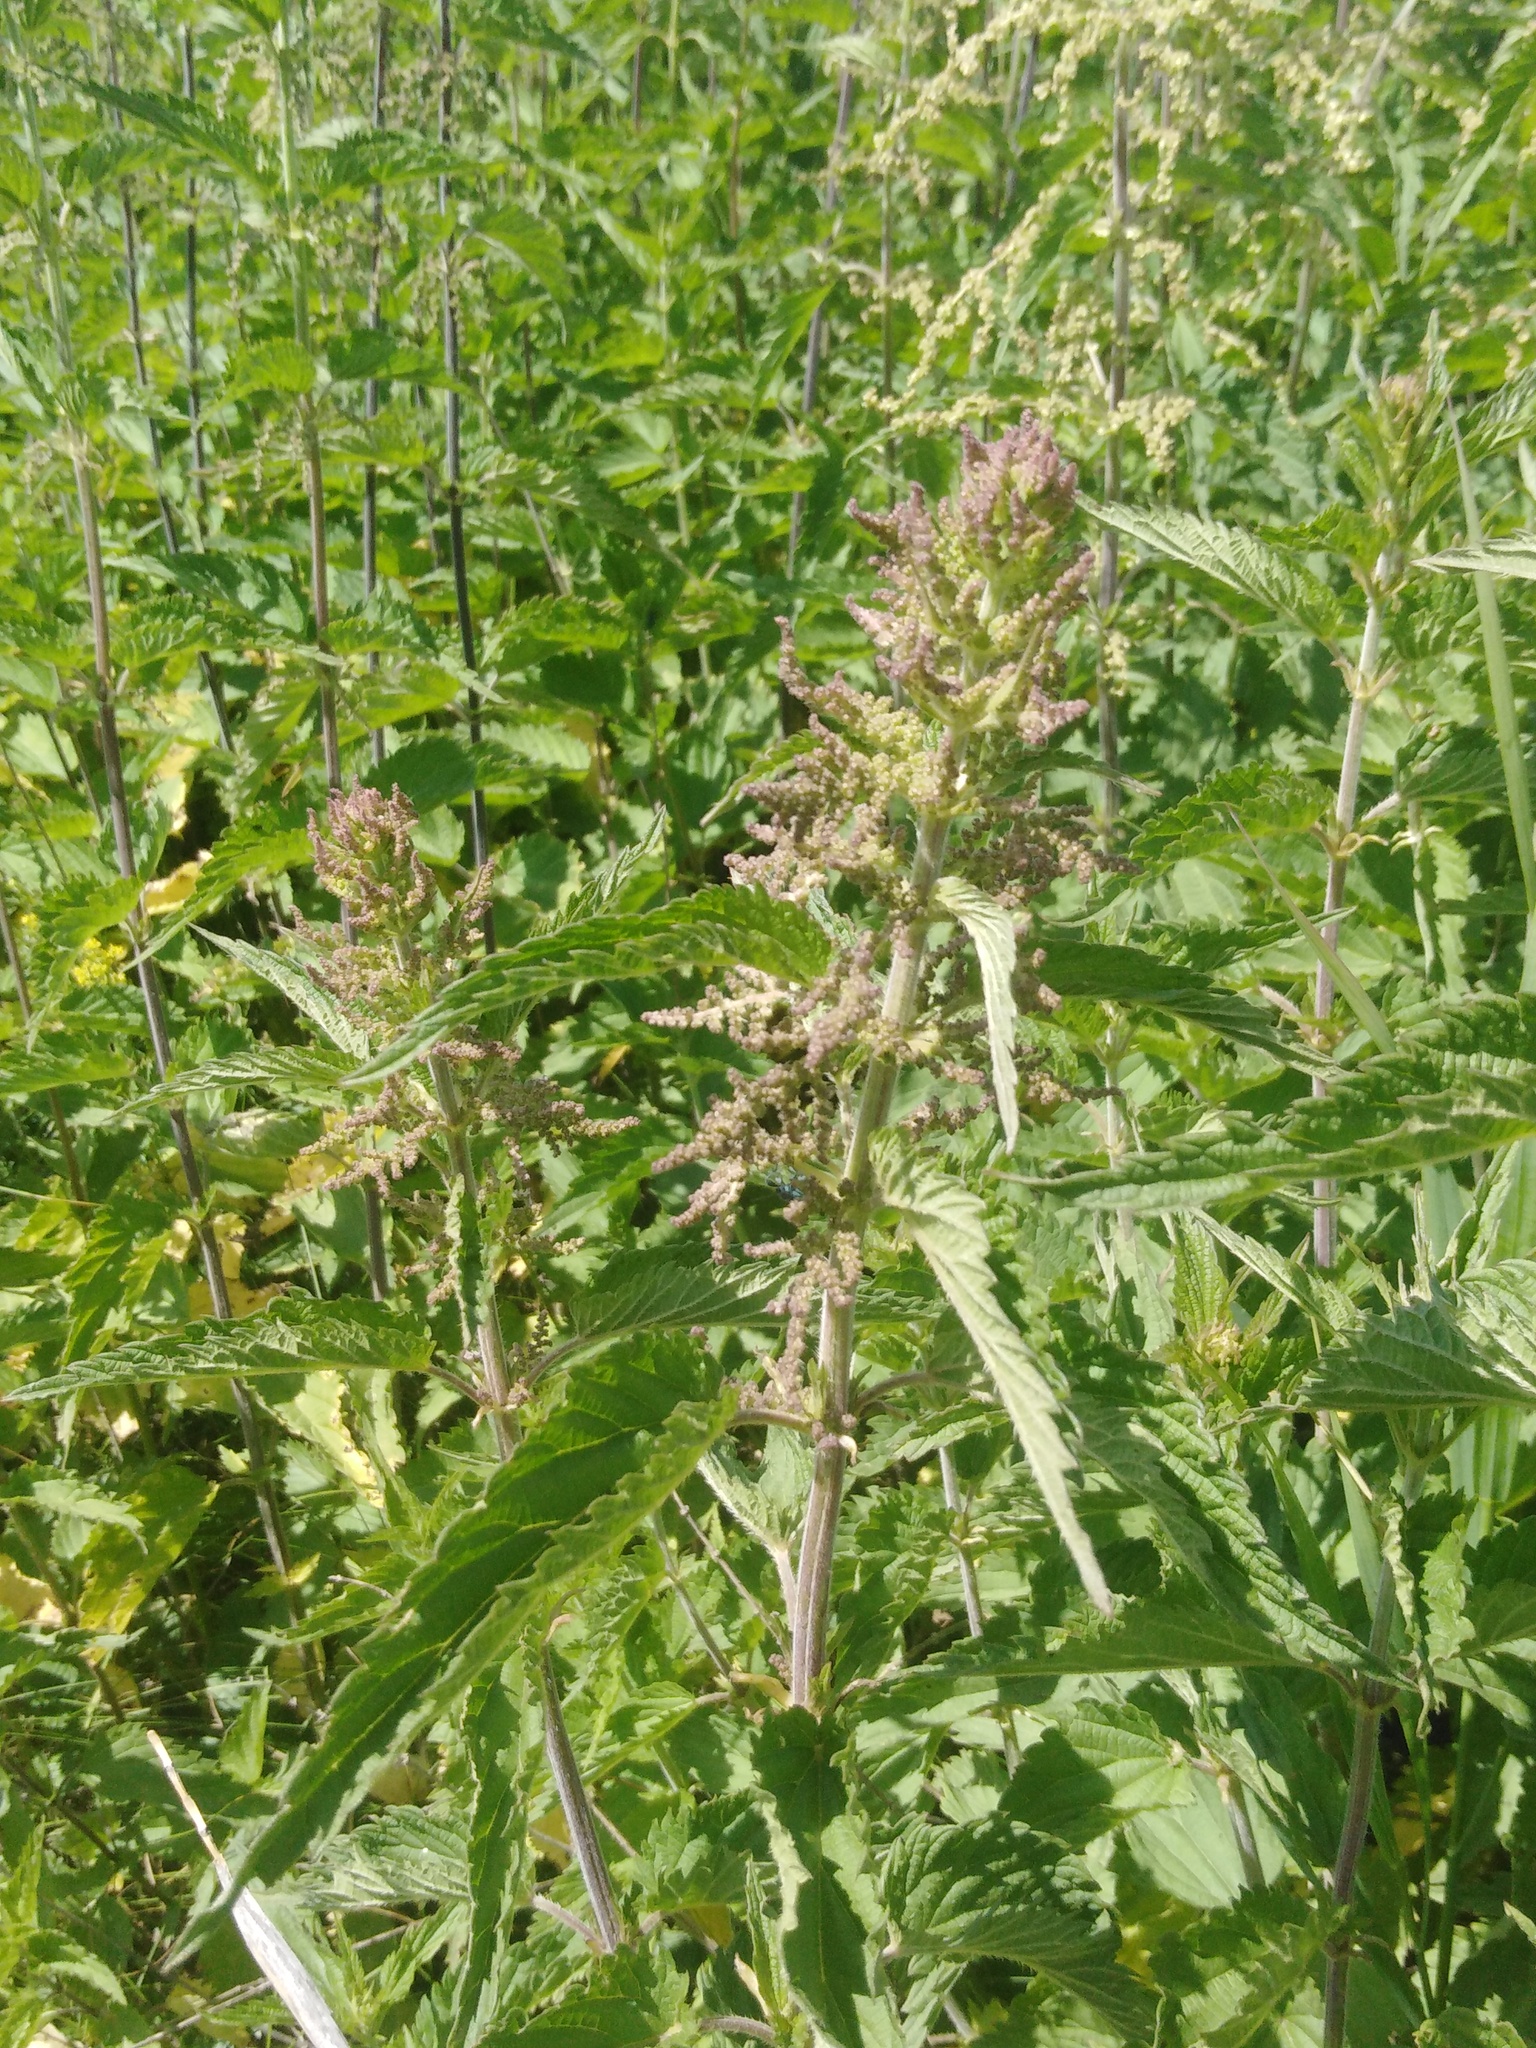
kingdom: Plantae
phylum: Tracheophyta
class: Magnoliopsida
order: Rosales
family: Urticaceae
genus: Urtica
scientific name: Urtica dioica
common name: Common nettle
